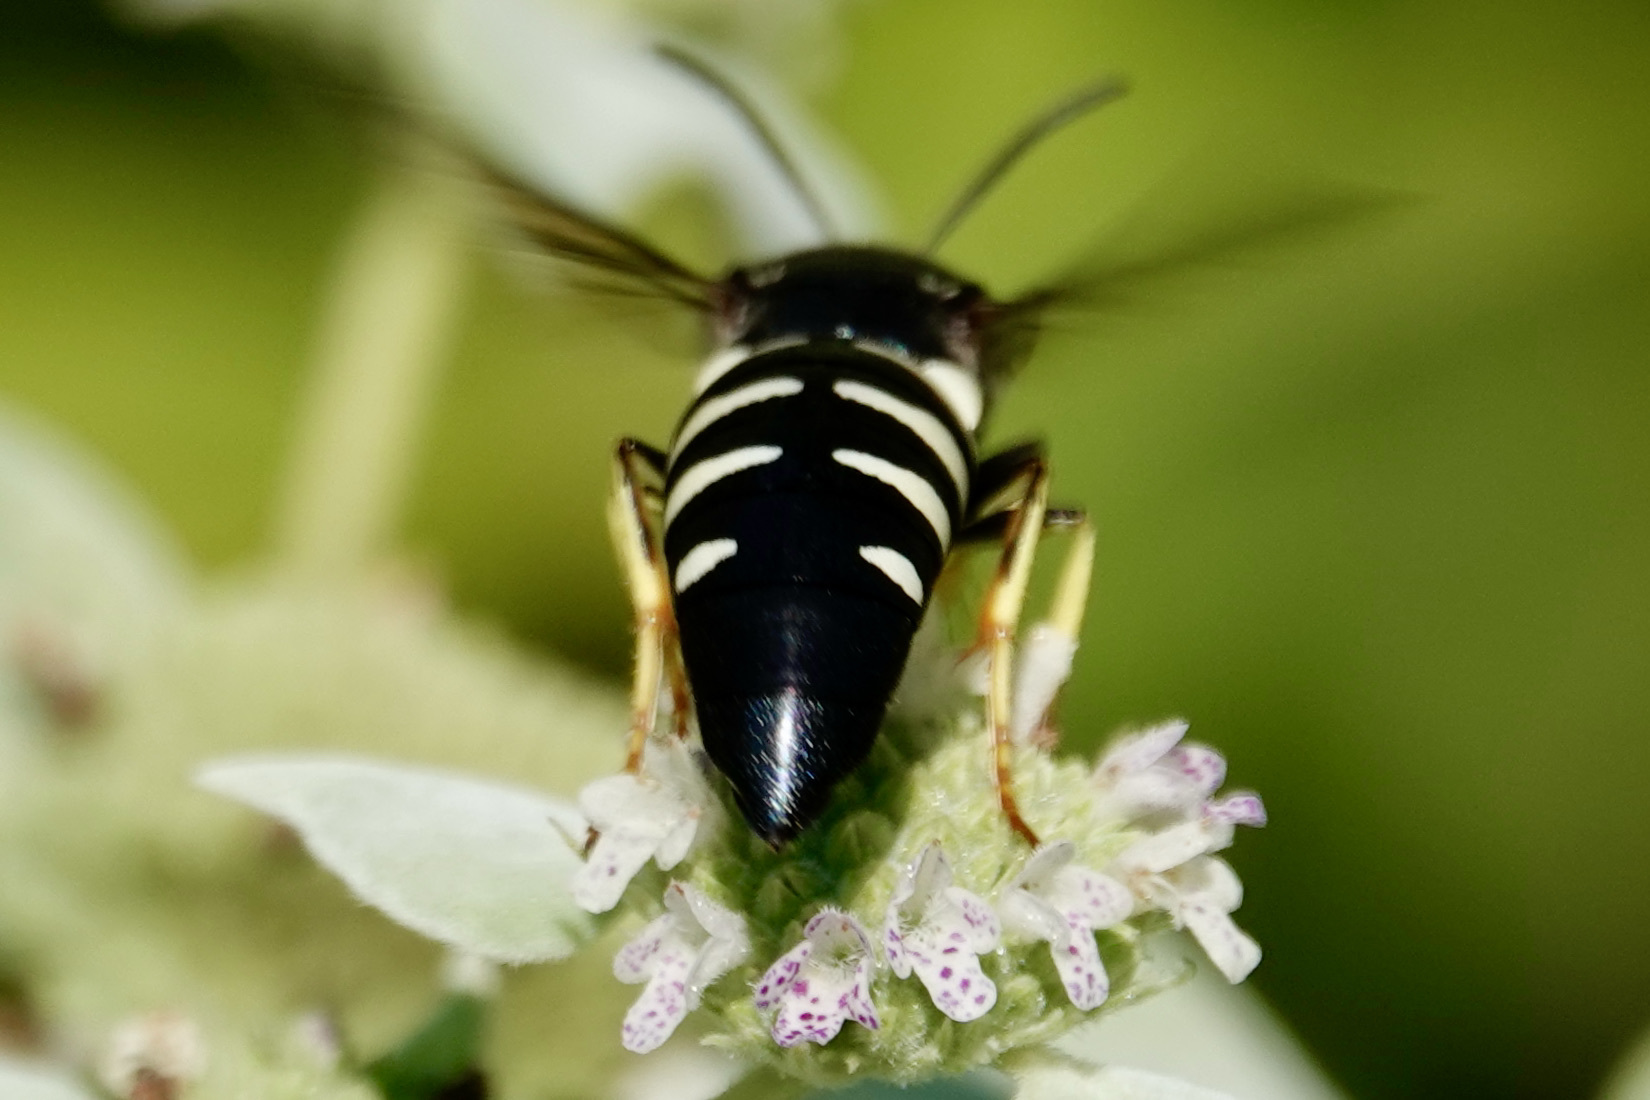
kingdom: Animalia
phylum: Arthropoda
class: Insecta
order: Hymenoptera
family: Crabronidae
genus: Bicyrtes
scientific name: Bicyrtes quadrifasciatus
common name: Four-banded stink bug hunter wasp
